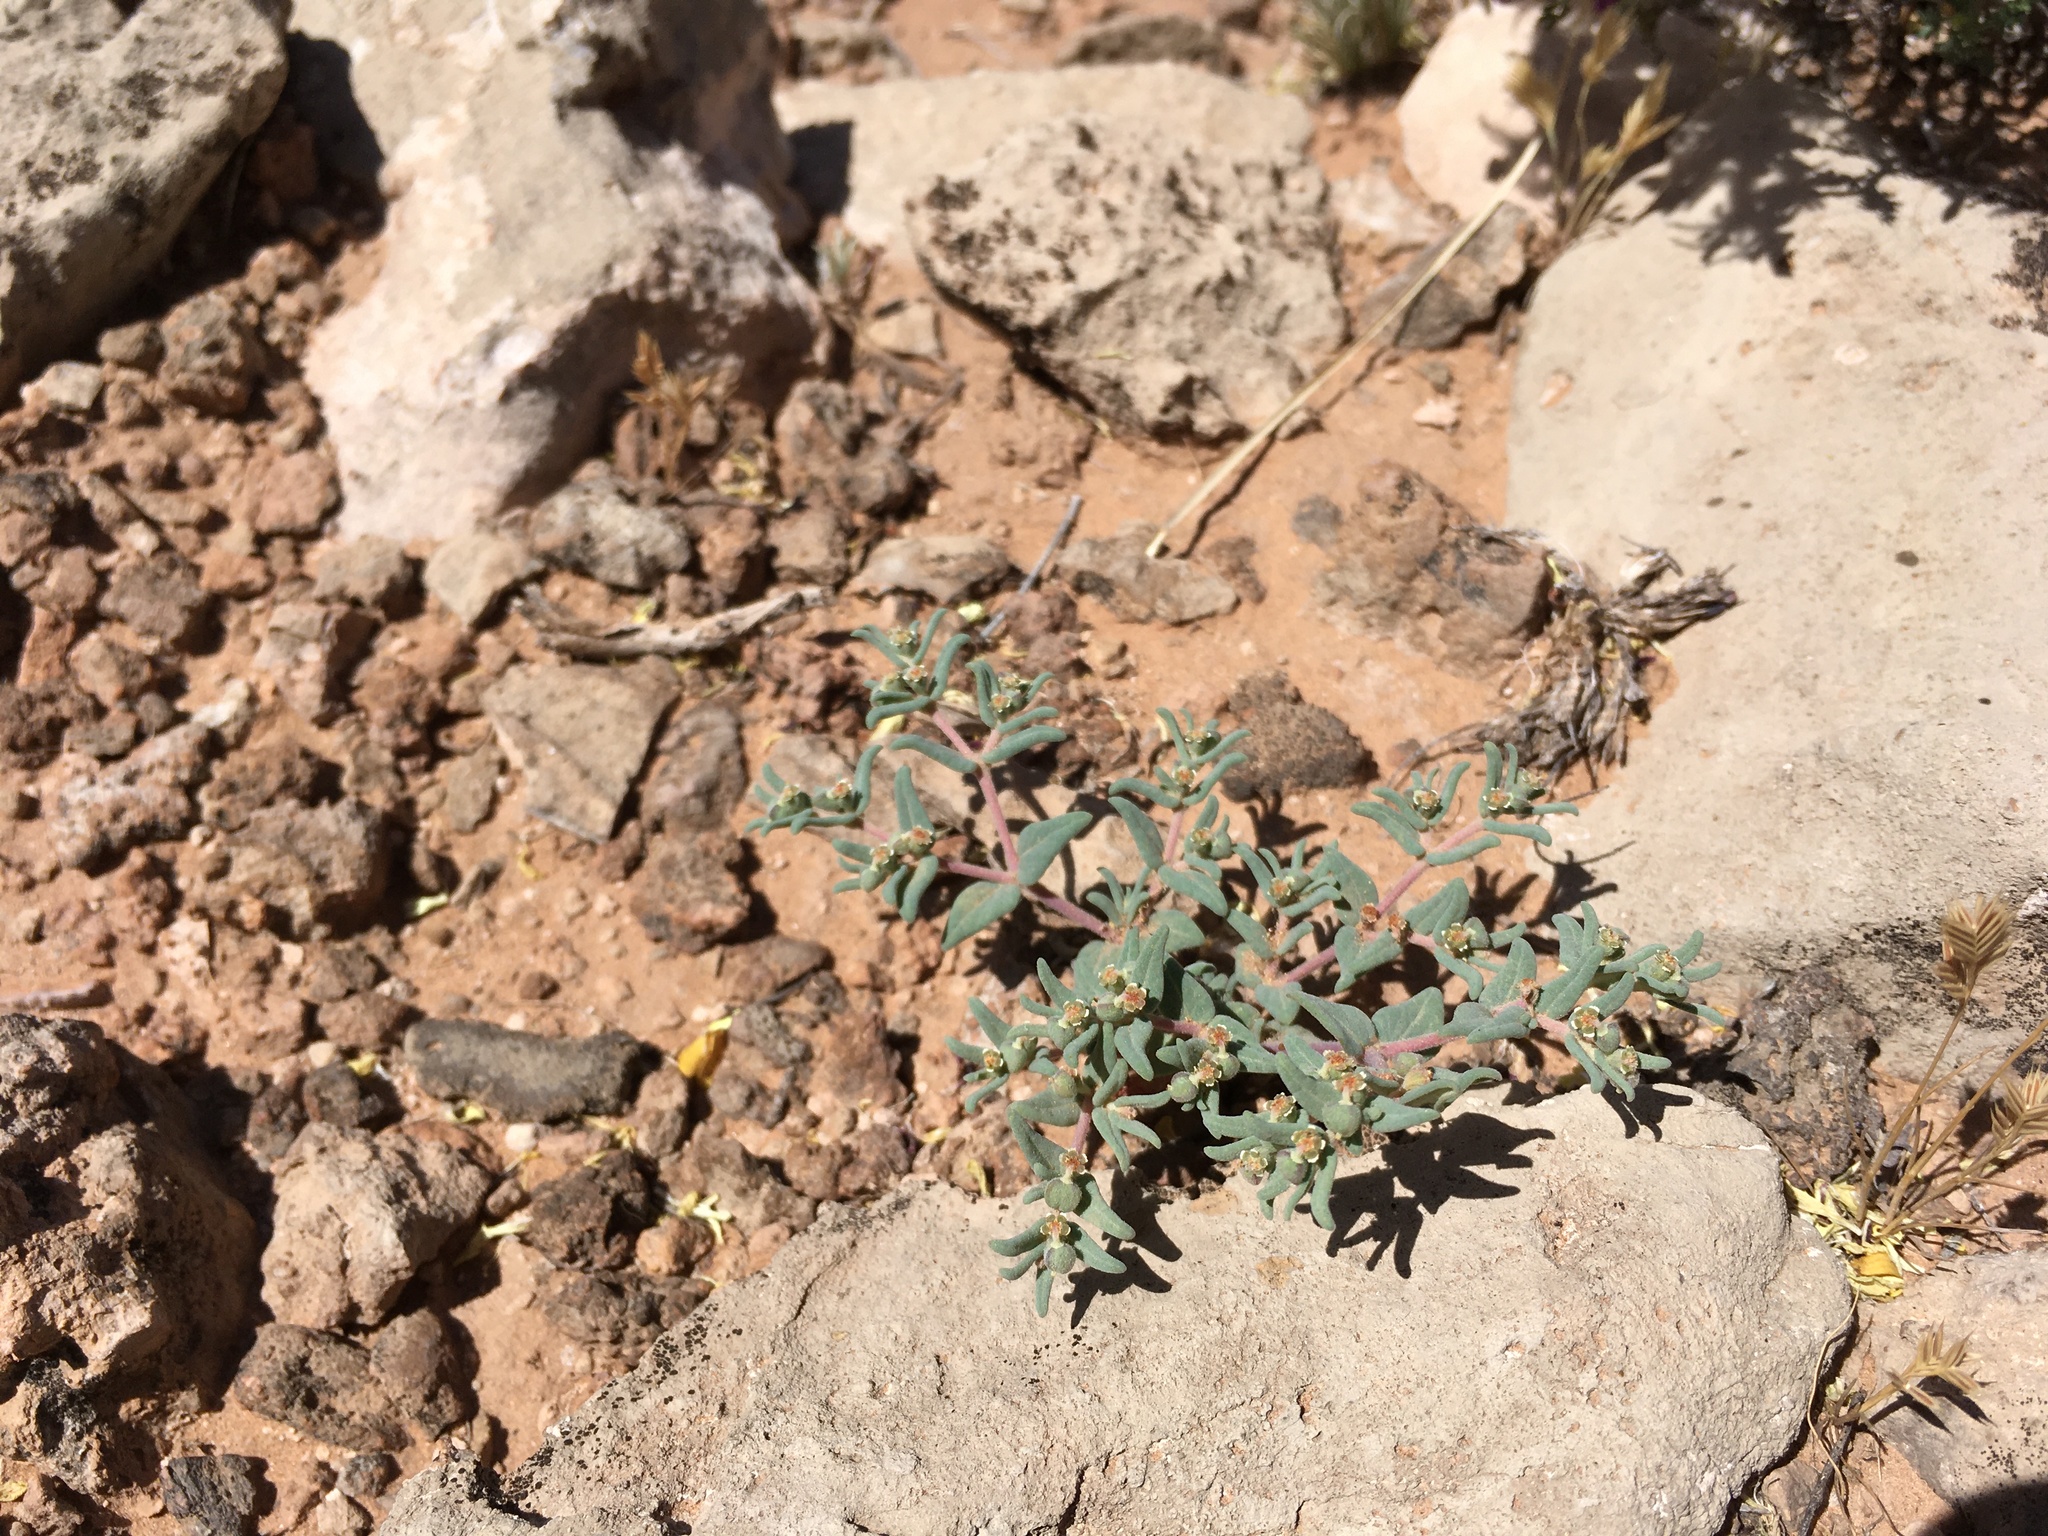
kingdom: Plantae
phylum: Tracheophyta
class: Magnoliopsida
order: Malpighiales
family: Euphorbiaceae
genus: Euphorbia
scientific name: Euphorbia lata
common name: Hoary euphorbia
